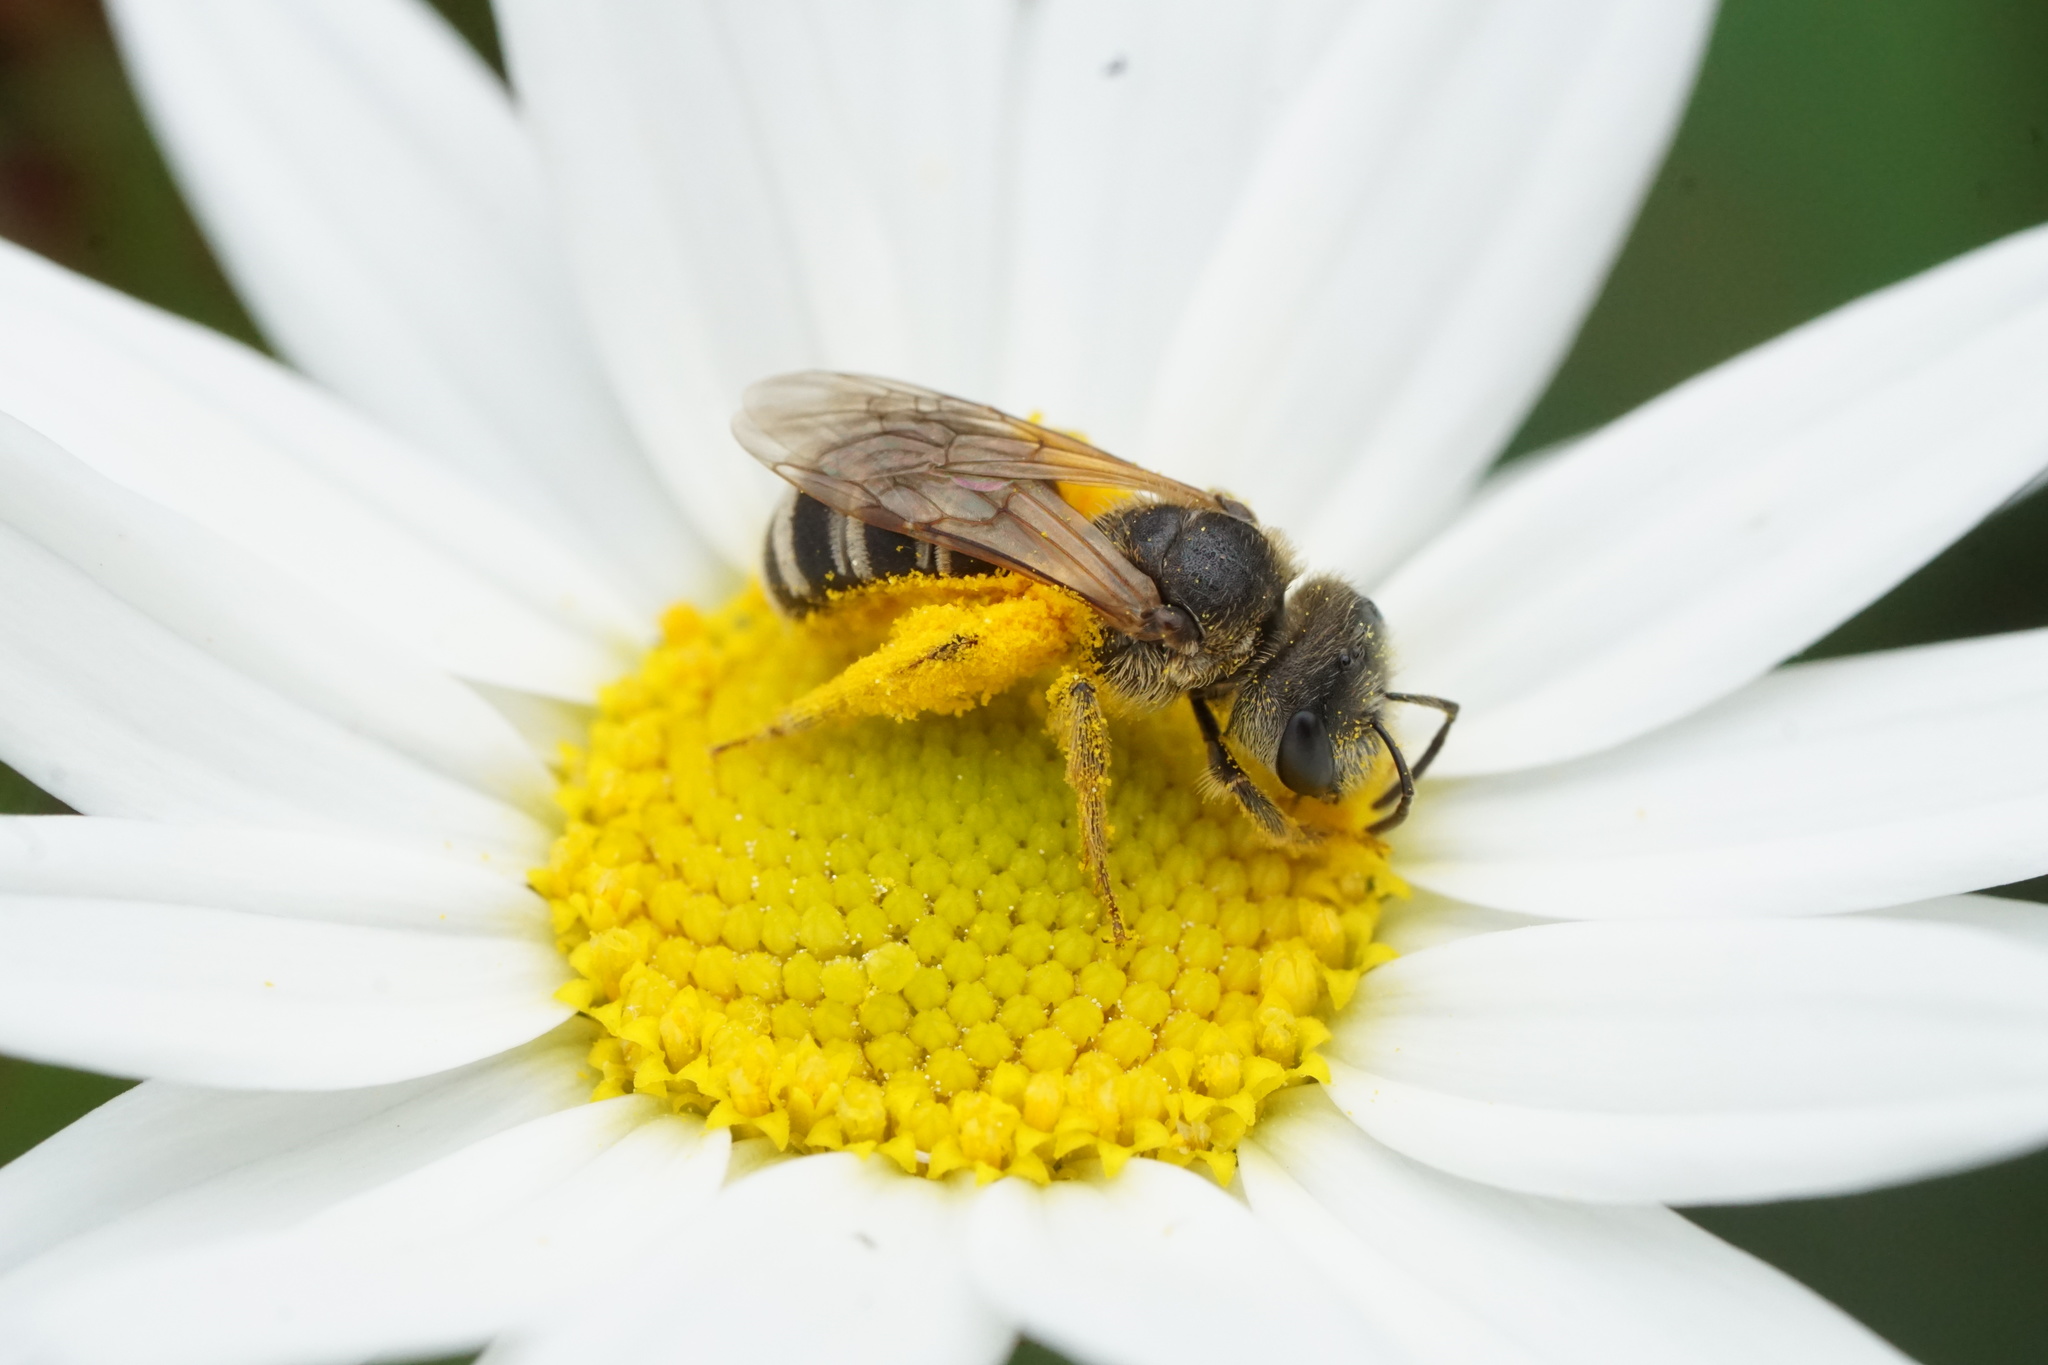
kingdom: Animalia
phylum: Arthropoda
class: Insecta
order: Hymenoptera
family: Halictidae
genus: Halictus
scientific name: Halictus ligatus
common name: Ligated furrow bee
